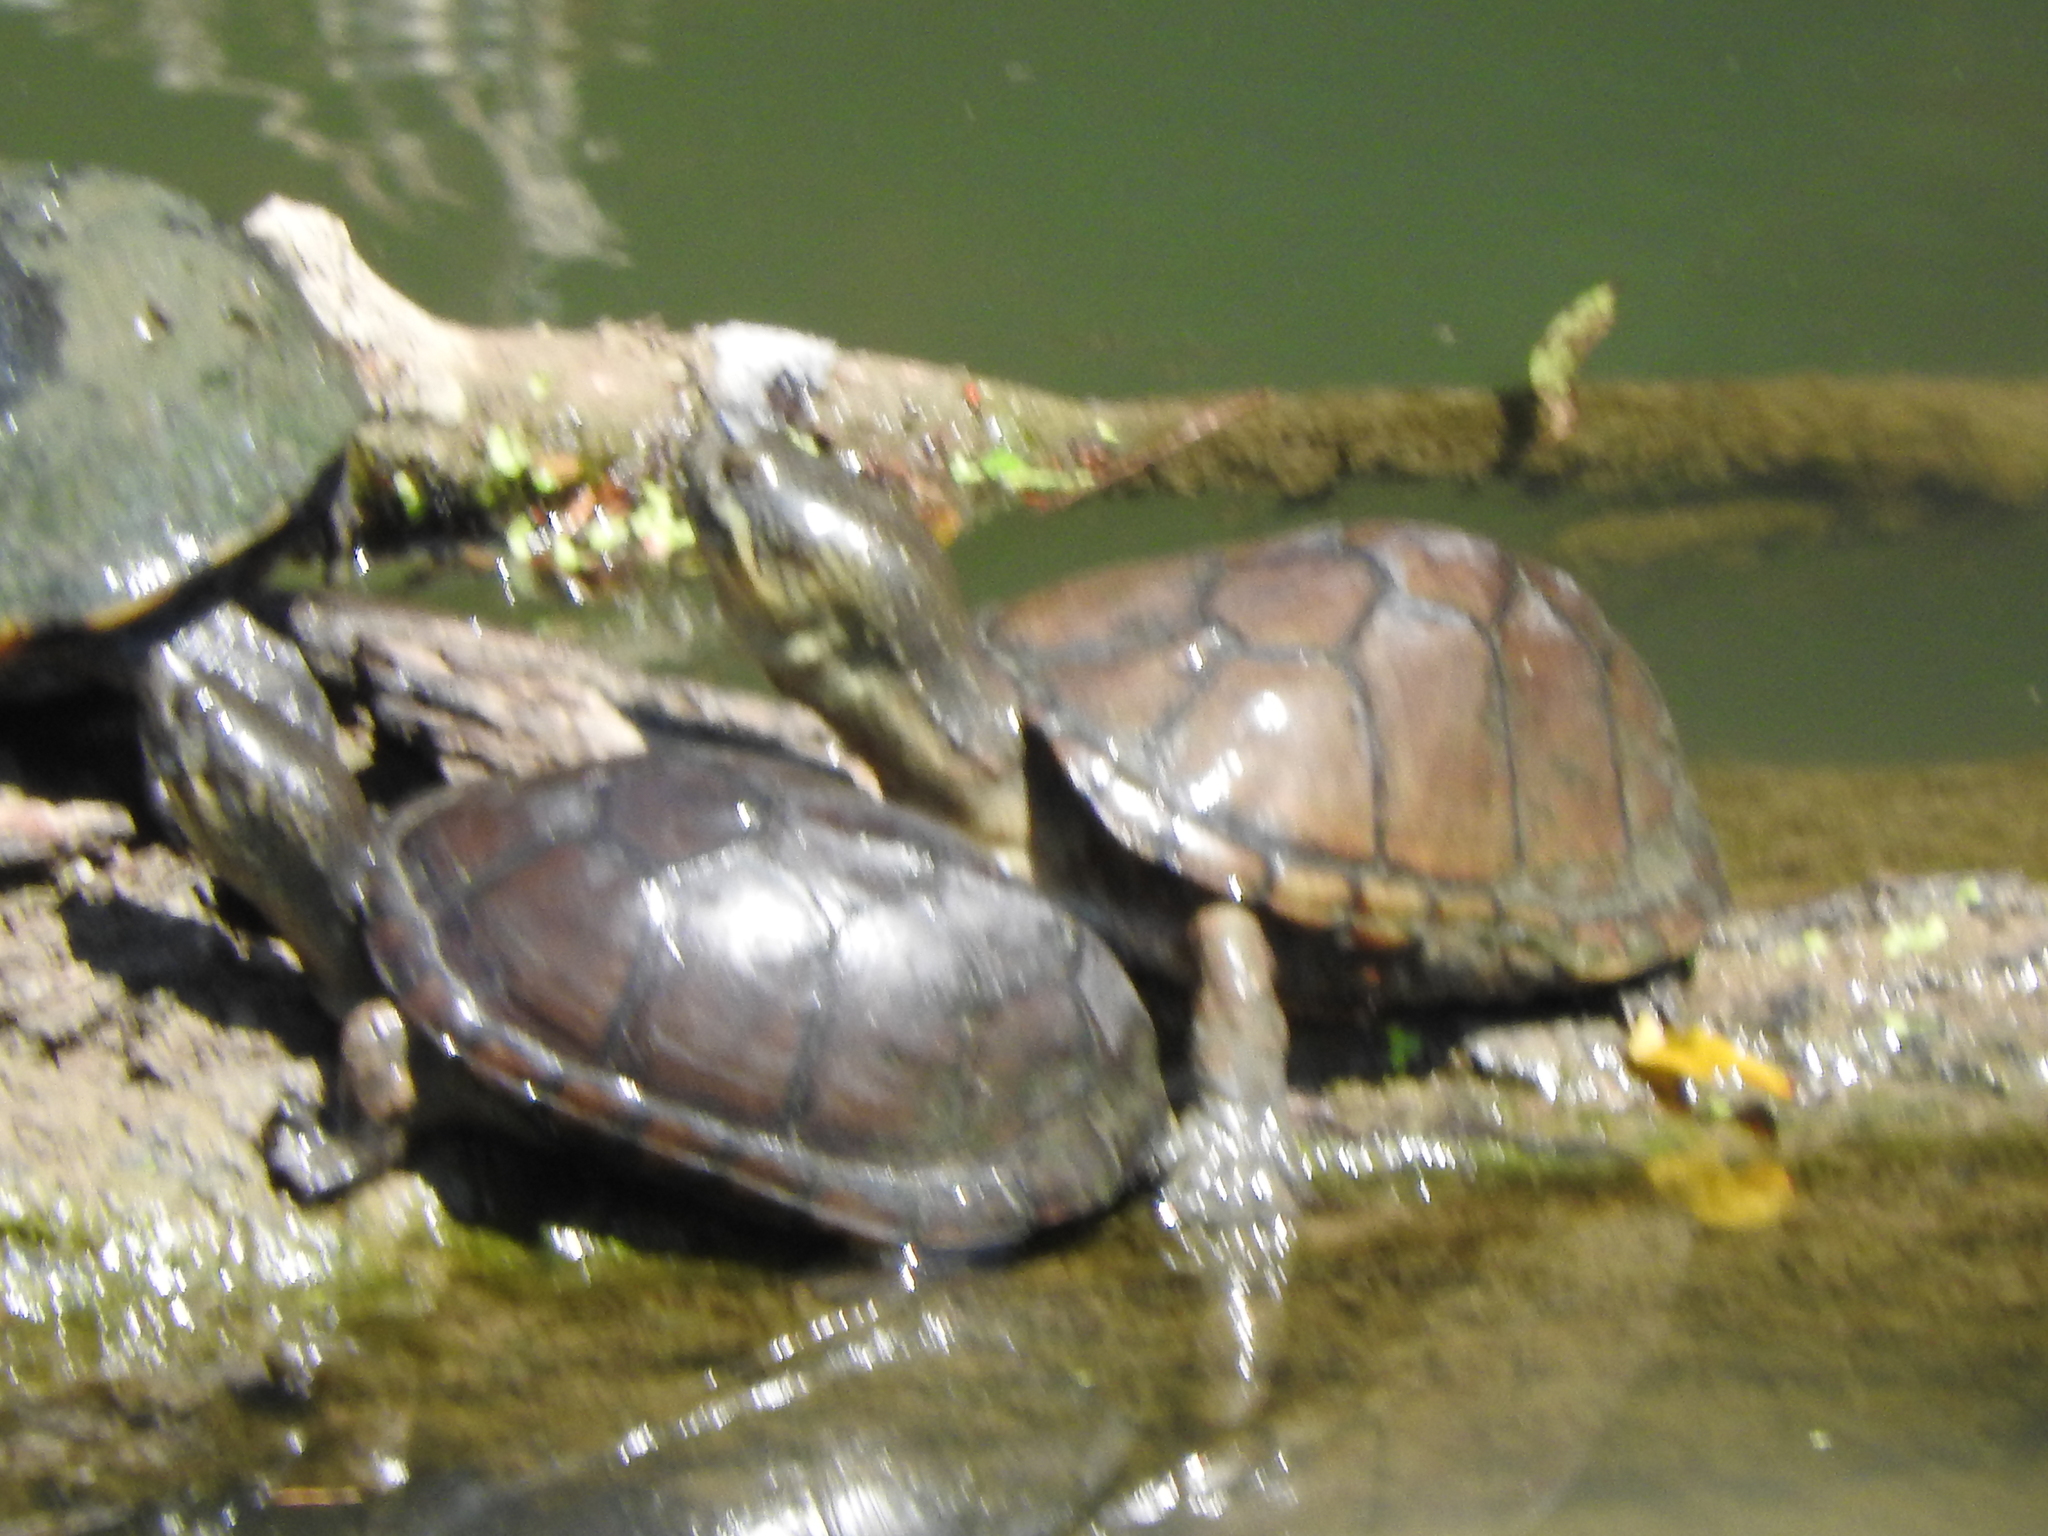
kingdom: Animalia
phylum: Chordata
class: Testudines
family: Kinosternidae
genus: Kinosternon
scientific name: Kinosternon integrum
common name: Mexican mud turtle
